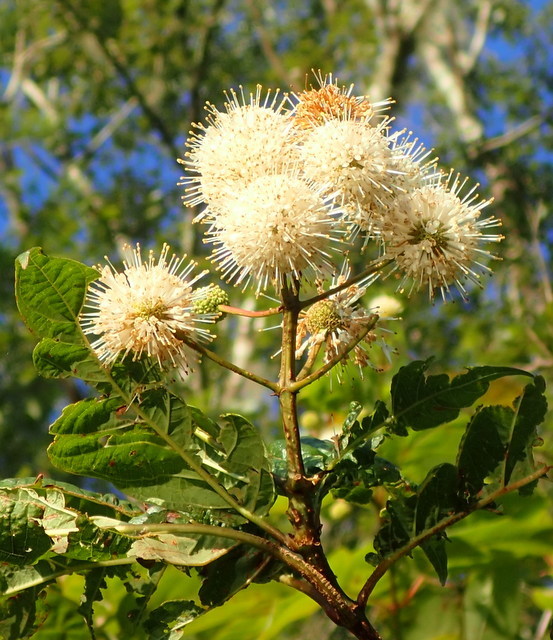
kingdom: Plantae
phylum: Tracheophyta
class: Magnoliopsida
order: Gentianales
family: Rubiaceae
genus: Cephalanthus
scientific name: Cephalanthus occidentalis
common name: Button-willow
